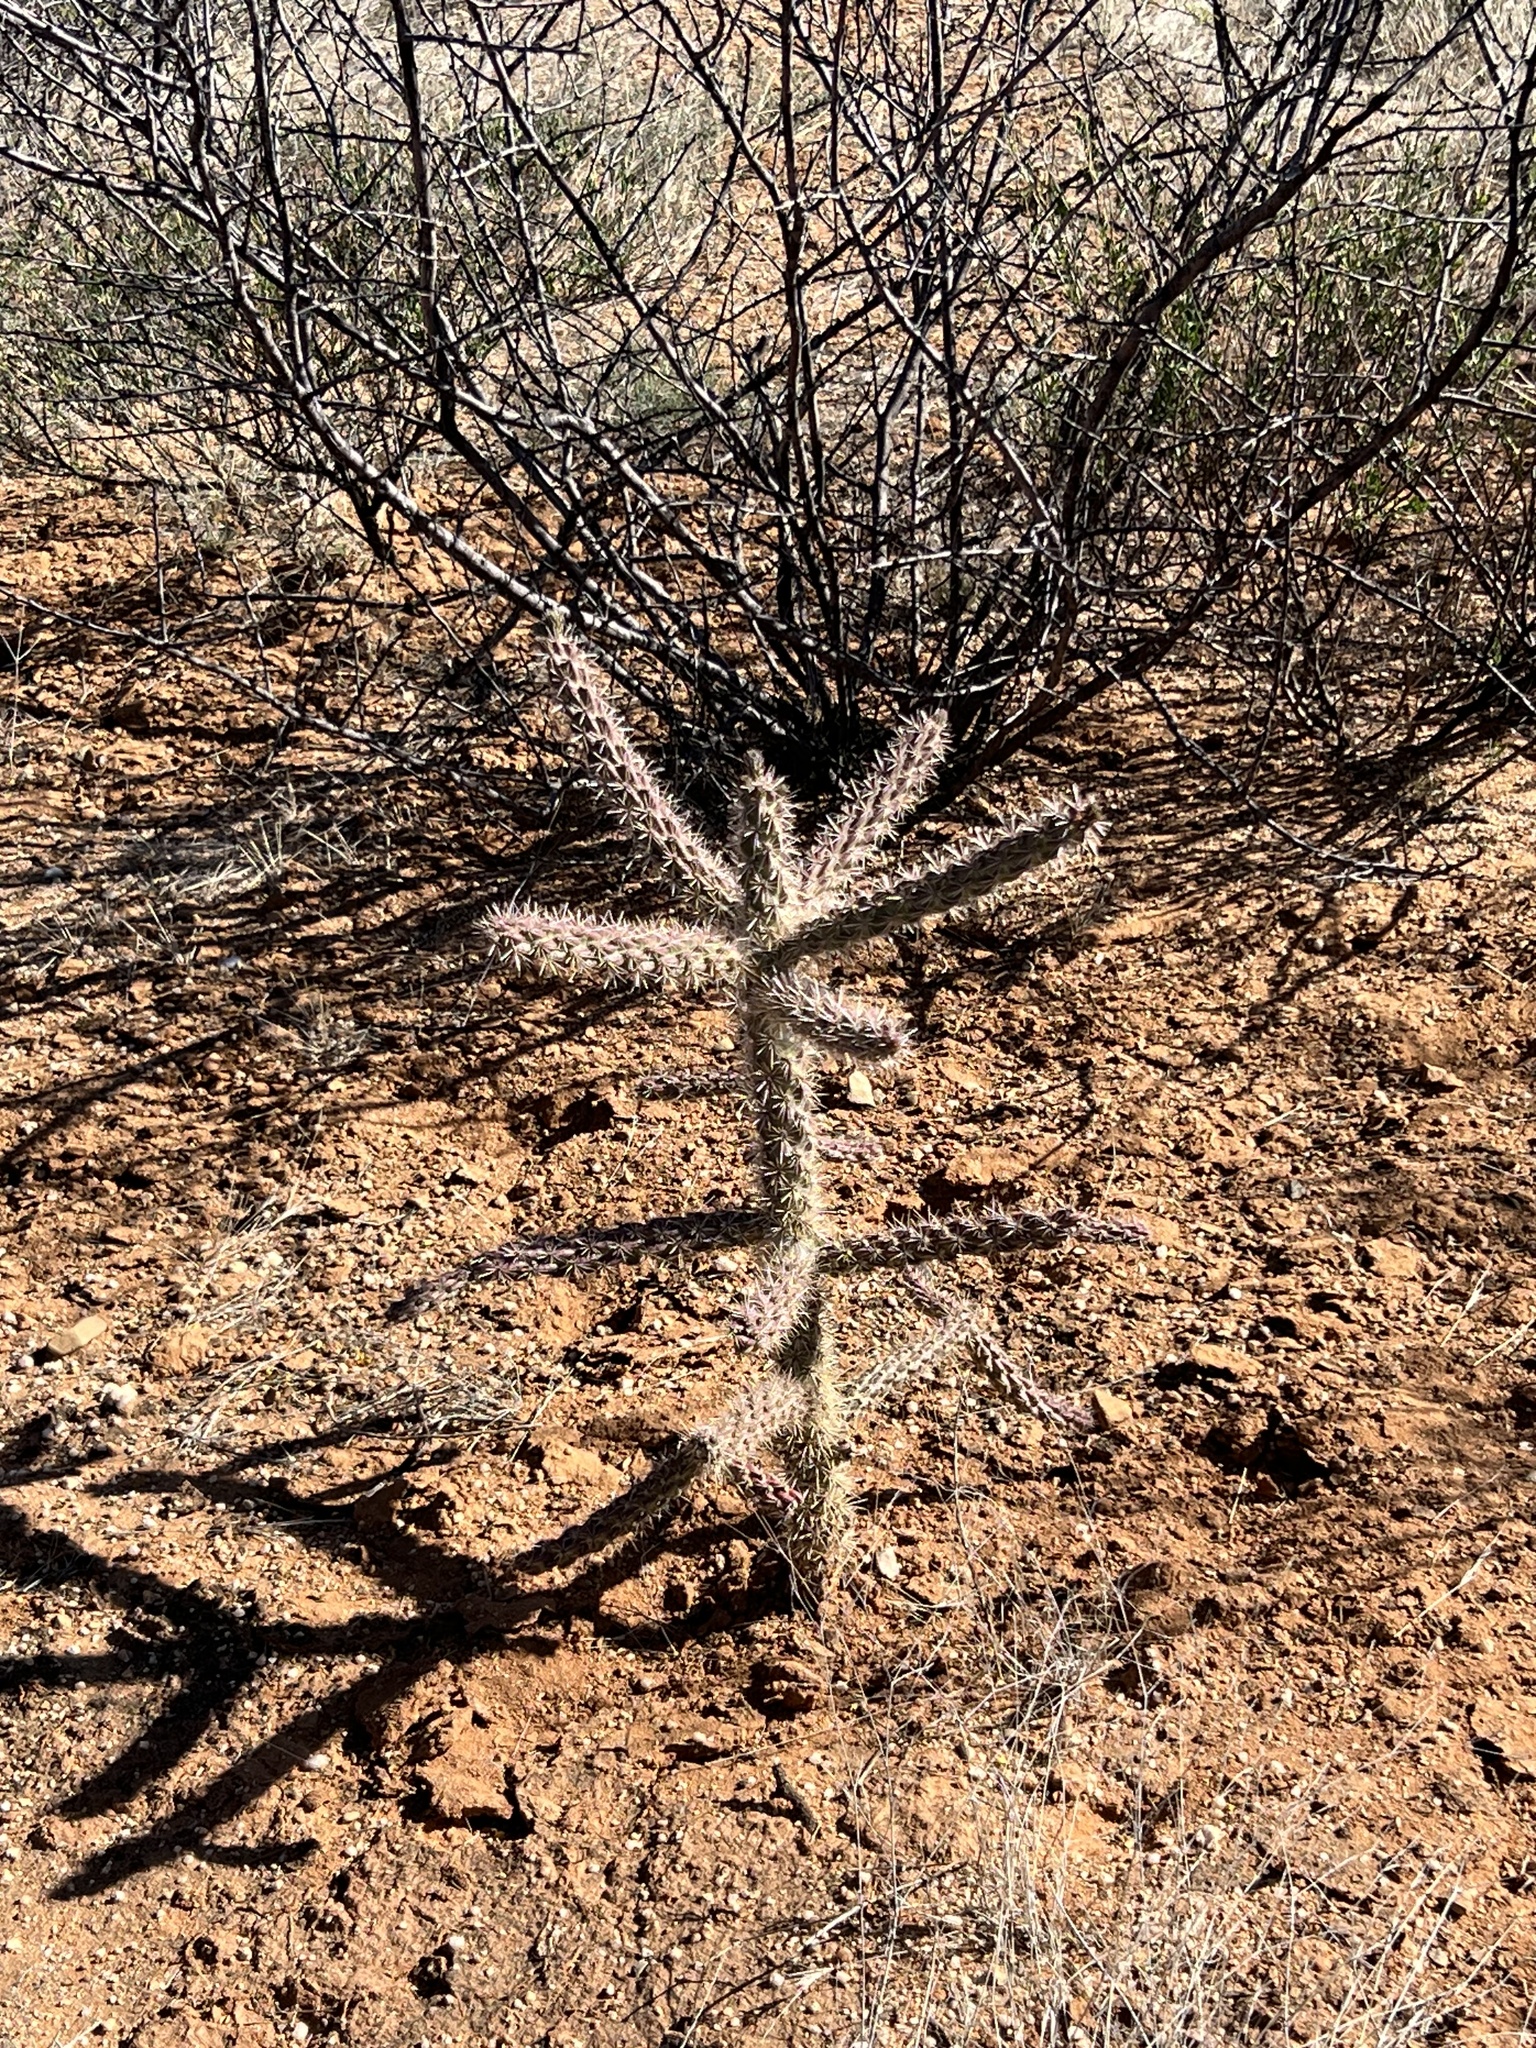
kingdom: Plantae
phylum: Tracheophyta
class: Magnoliopsida
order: Caryophyllales
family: Cactaceae
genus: Cylindropuntia
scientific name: Cylindropuntia imbricata
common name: Candelabrum cactus
